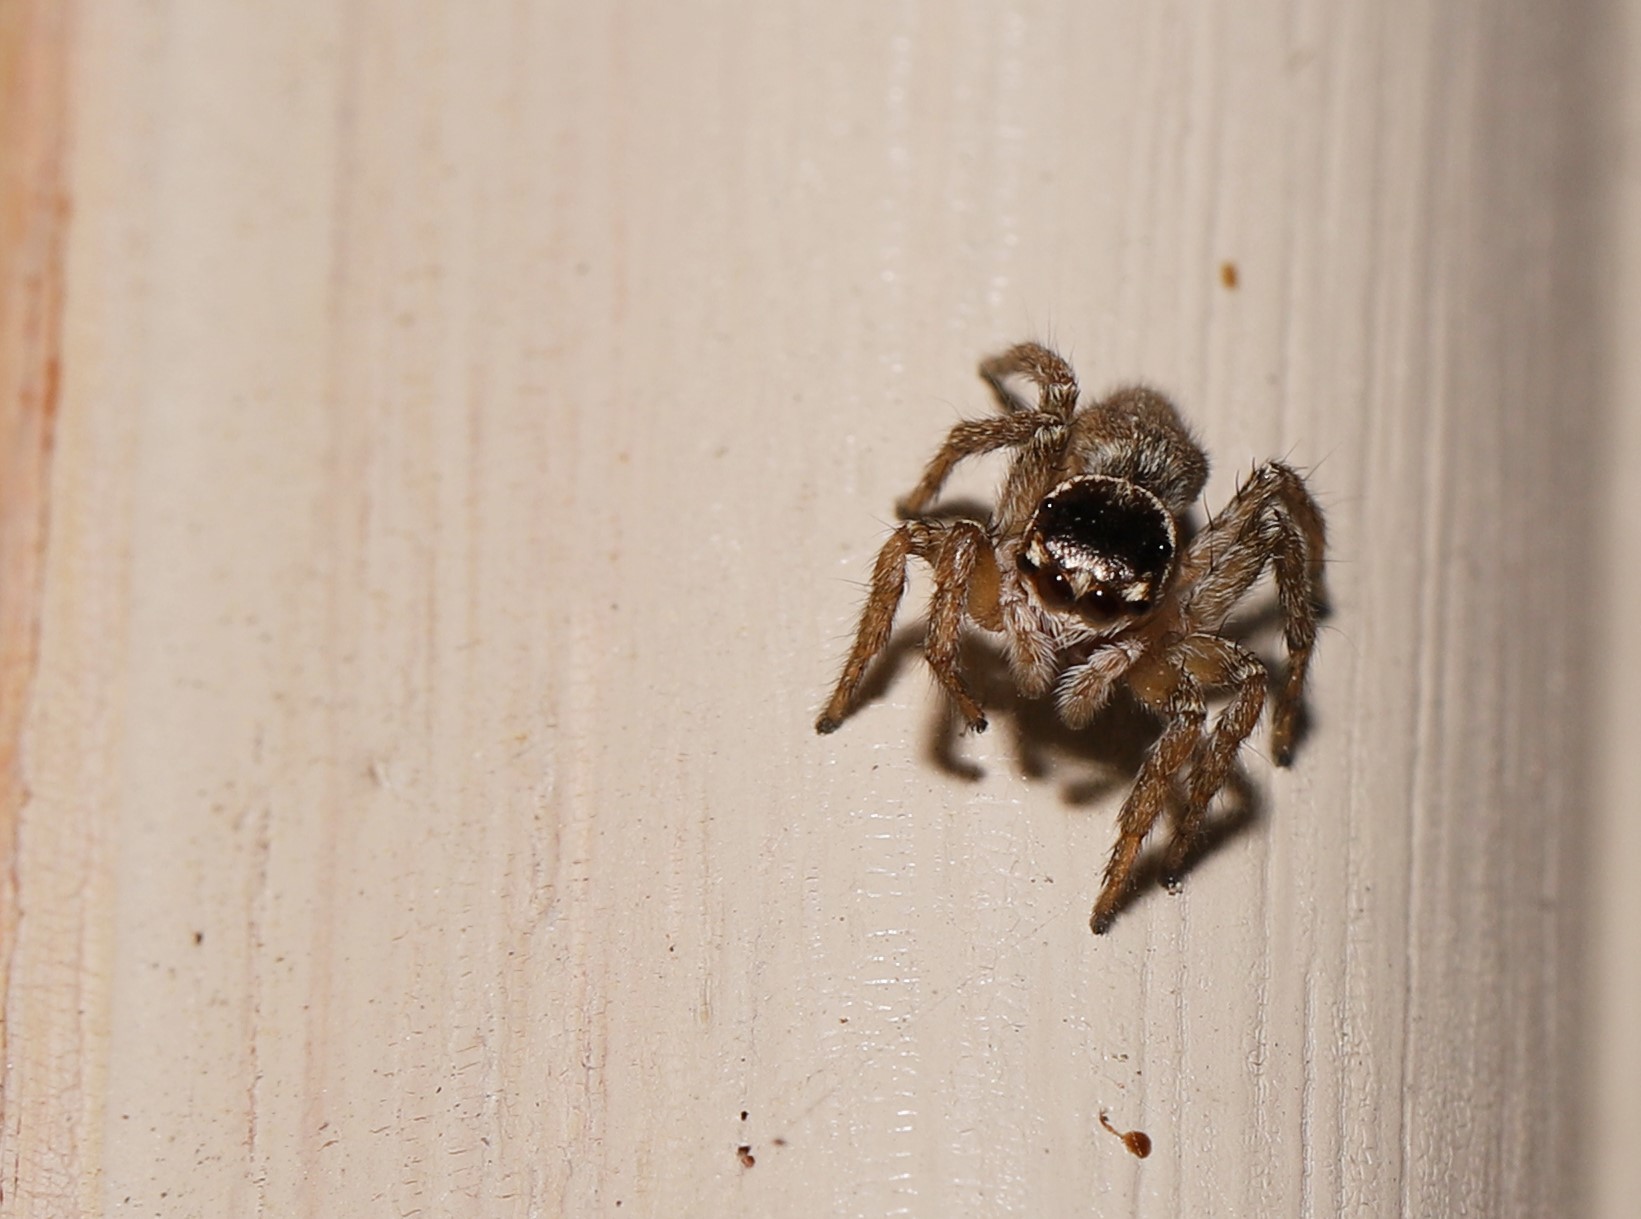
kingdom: Animalia
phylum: Arthropoda
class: Arachnida
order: Araneae
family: Salticidae
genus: Maratus
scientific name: Maratus griseus
